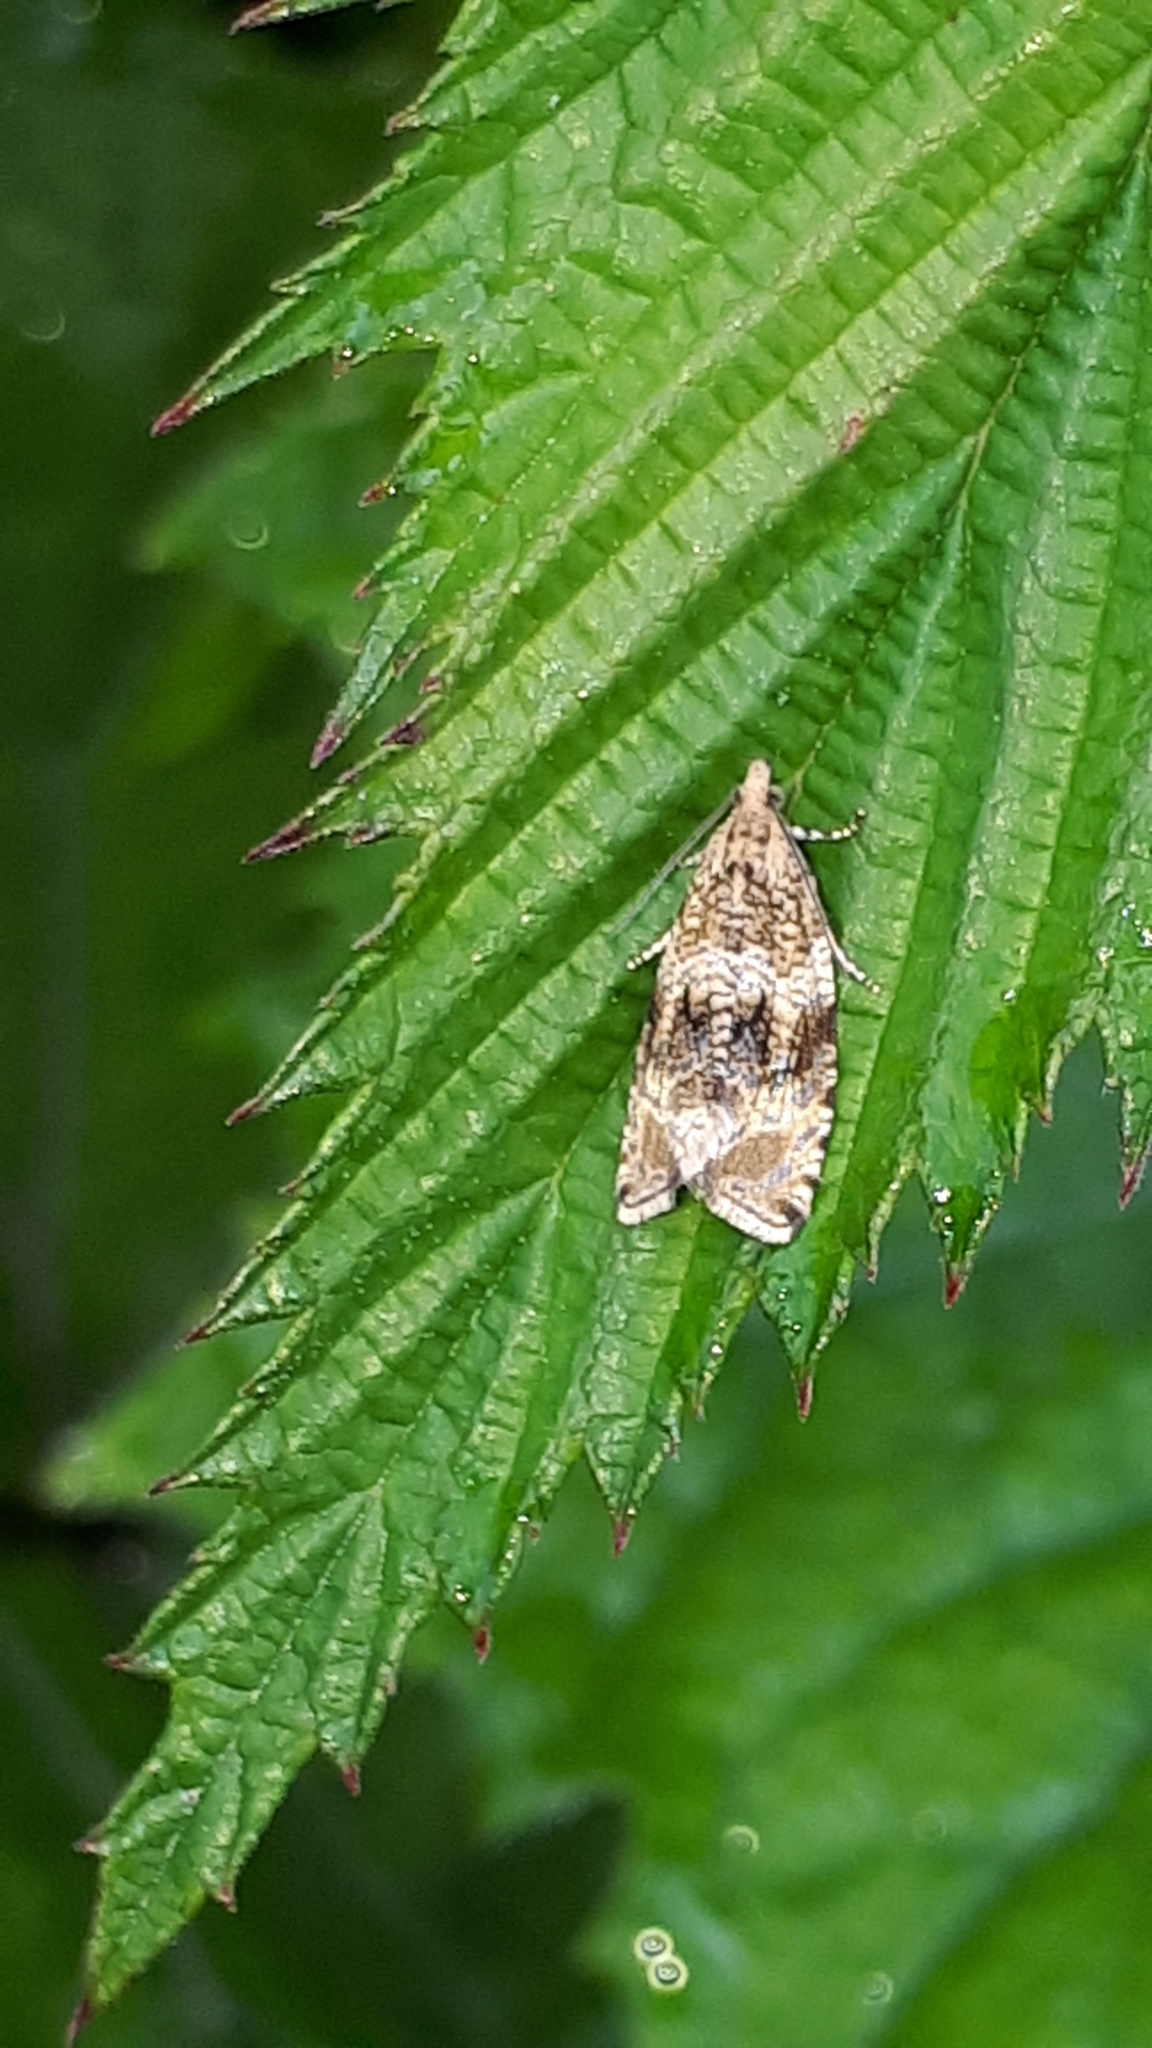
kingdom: Animalia
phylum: Arthropoda
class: Insecta
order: Lepidoptera
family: Tortricidae
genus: Syricoris
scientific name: Syricoris lacunana
